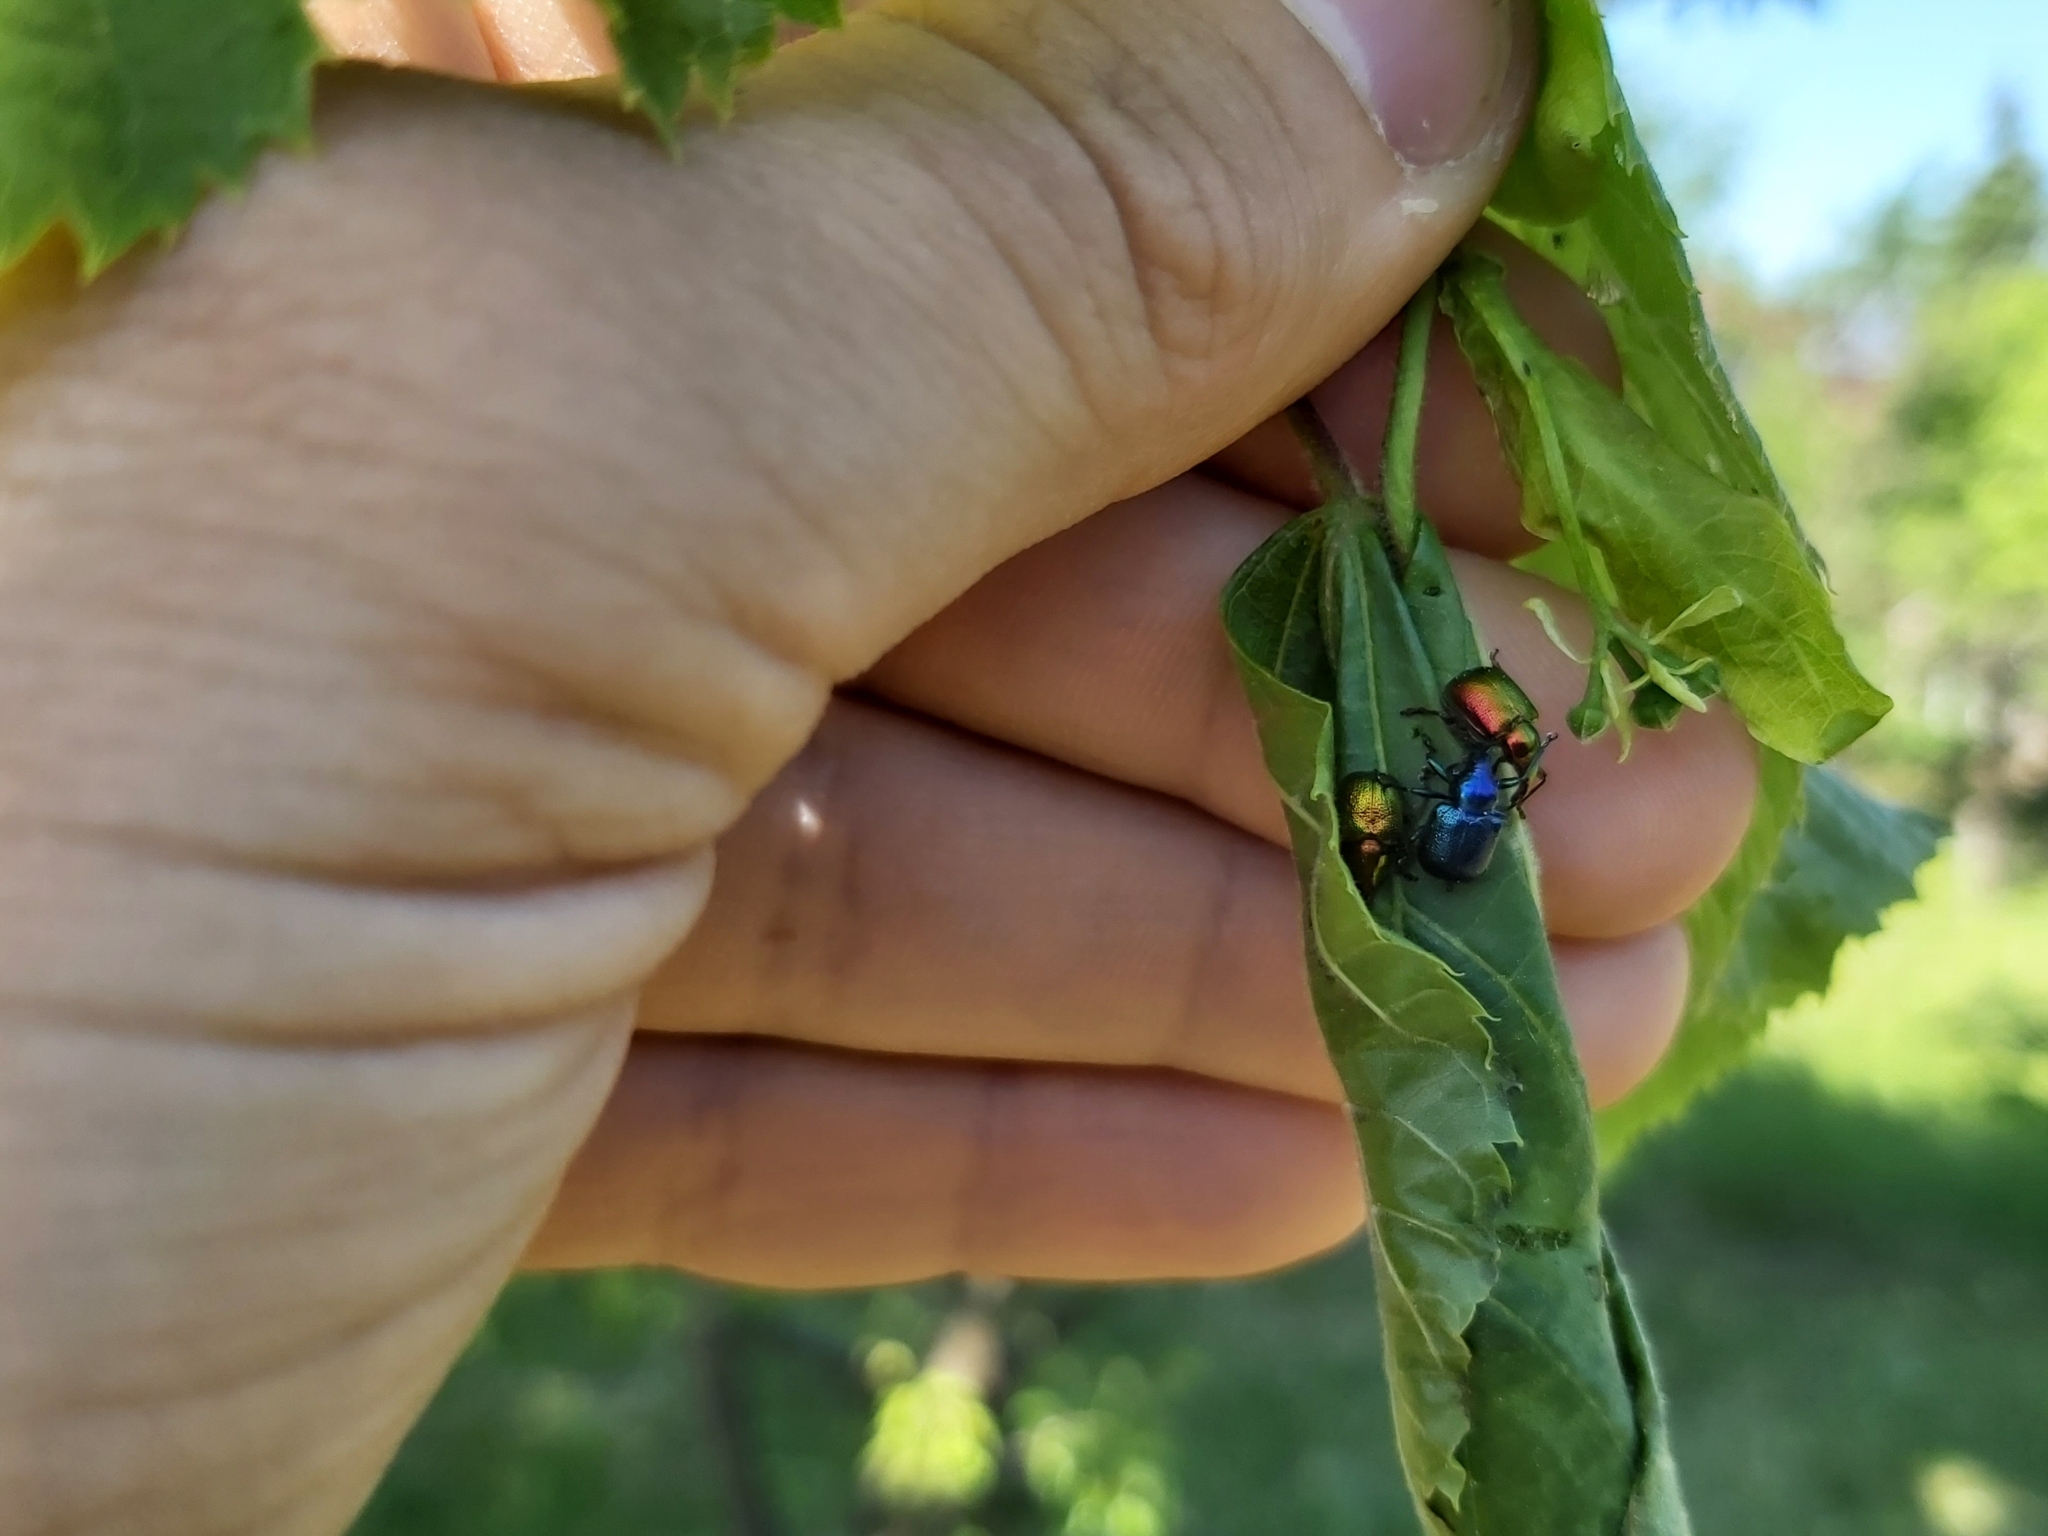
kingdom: Animalia
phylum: Arthropoda
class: Insecta
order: Coleoptera
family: Attelabidae
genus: Byctiscus
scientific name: Byctiscus betulae
